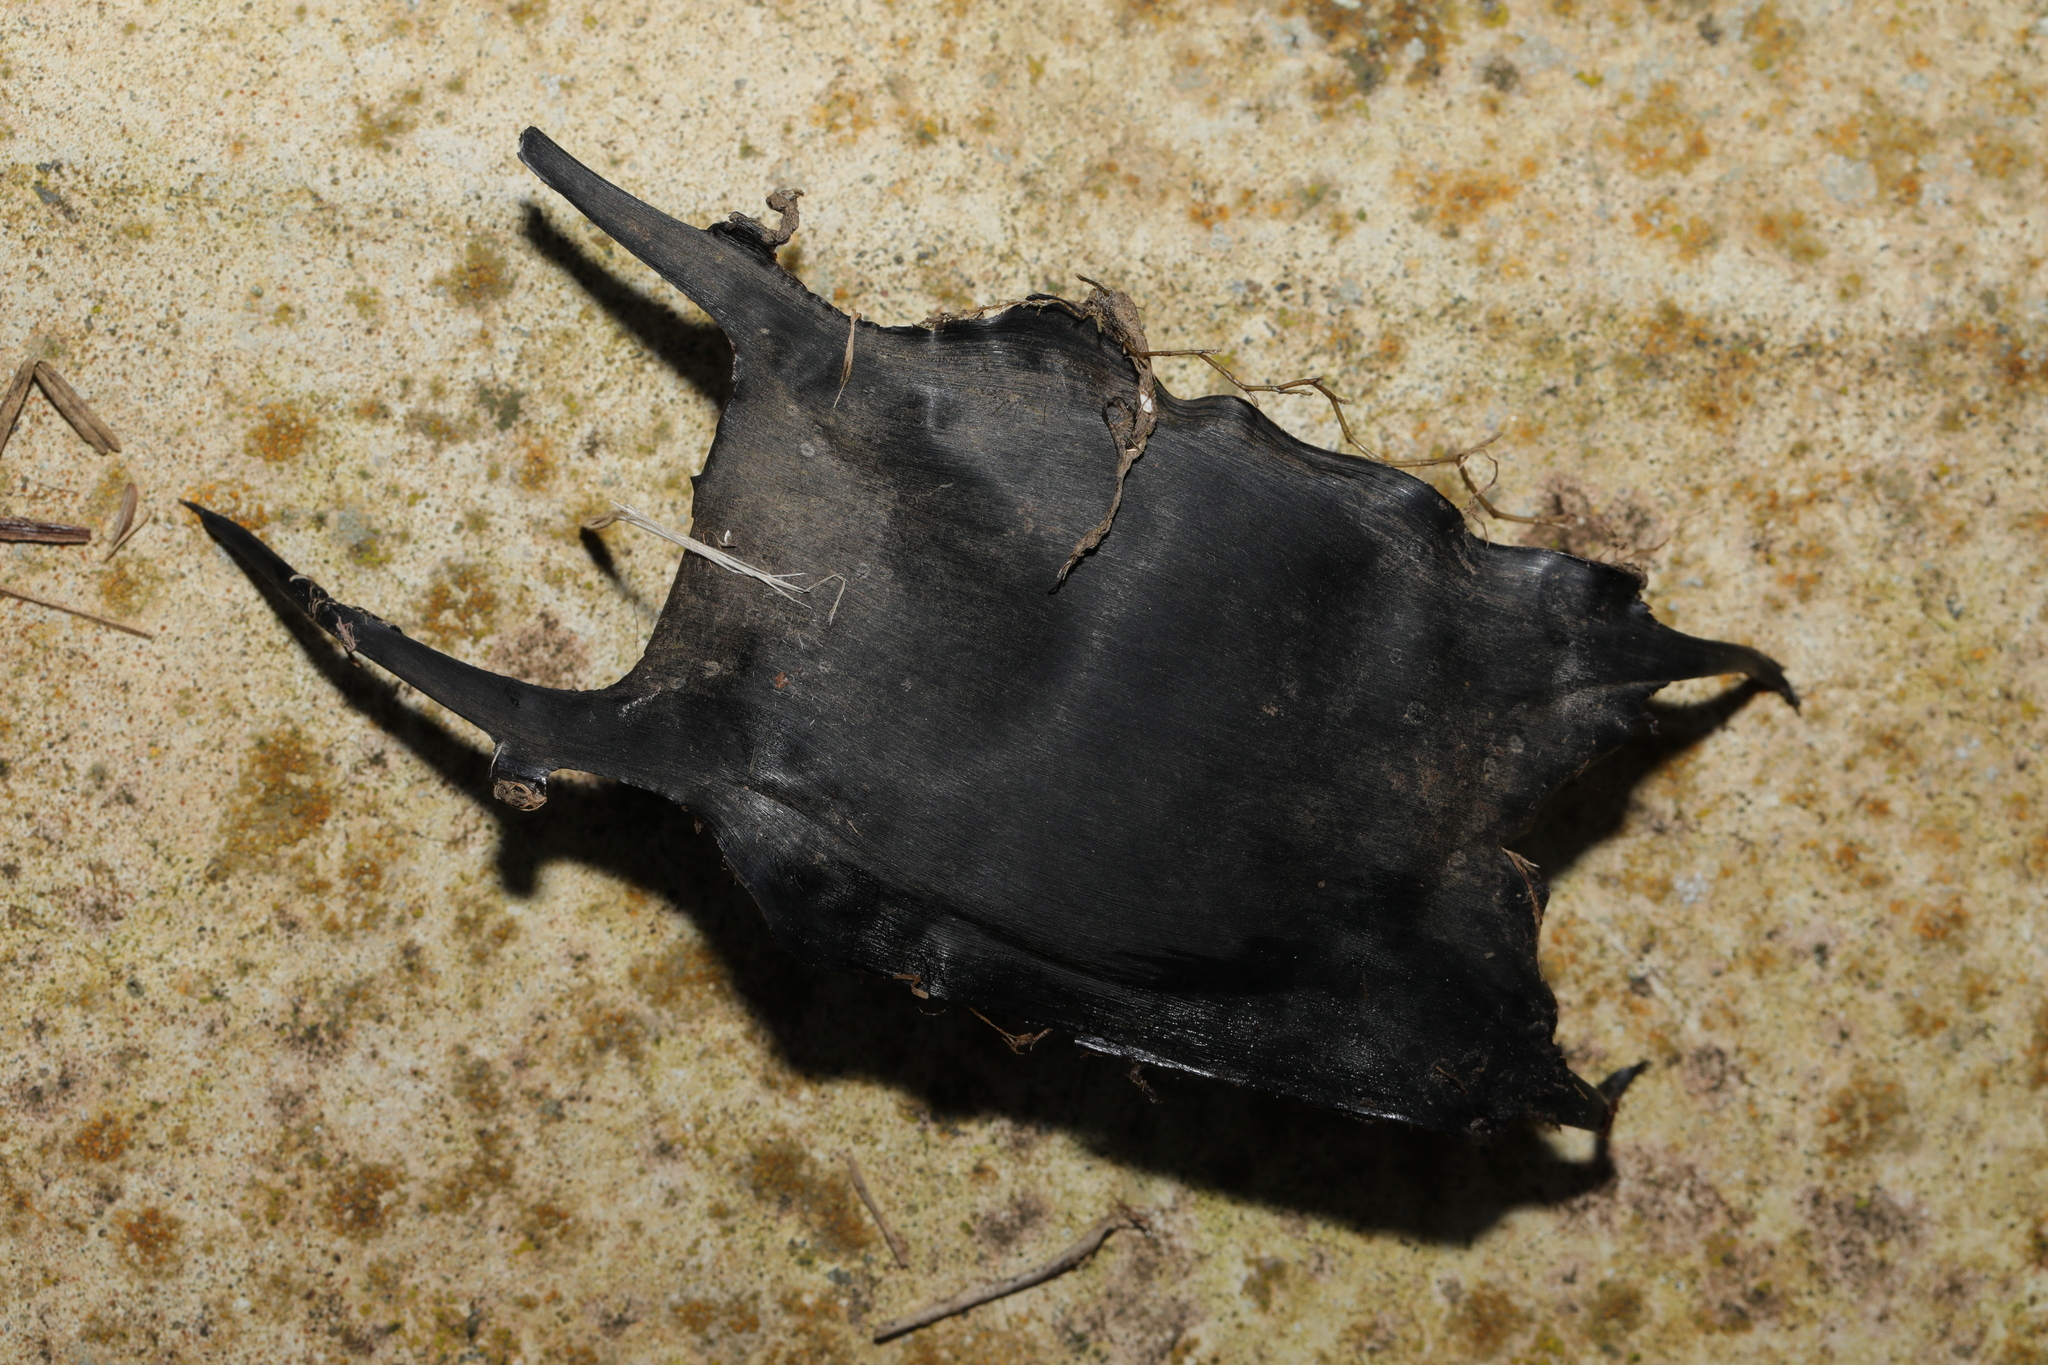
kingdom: Animalia
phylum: Chordata
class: Elasmobranchii
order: Rajiformes
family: Rajidae
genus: Raja
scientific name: Raja clavata
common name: Thornback ray
